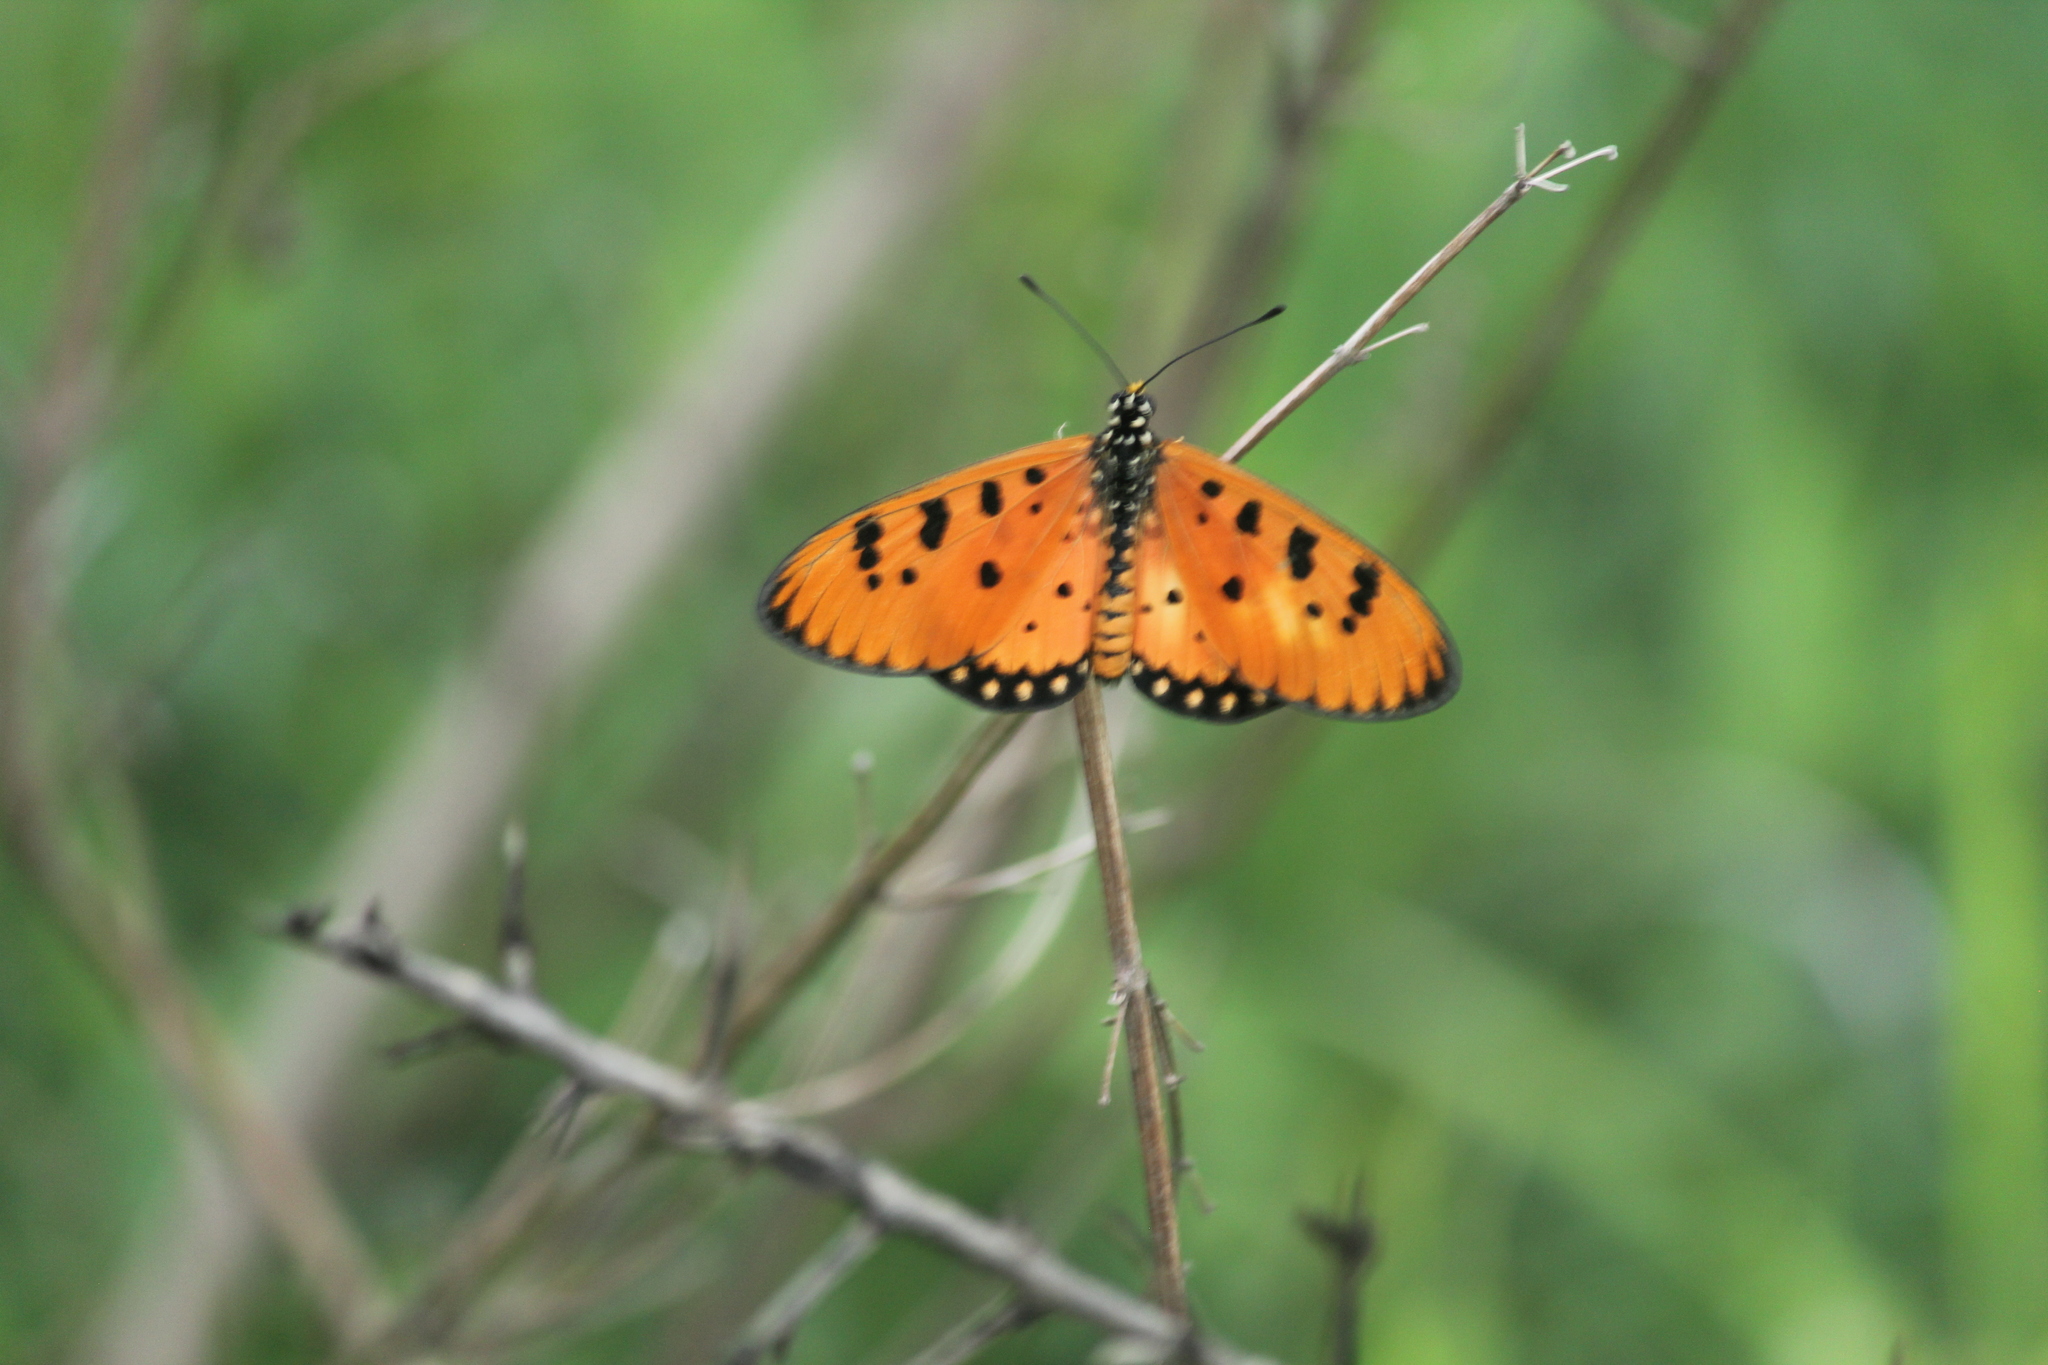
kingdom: Animalia
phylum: Arthropoda
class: Insecta
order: Lepidoptera
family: Nymphalidae
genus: Acraea
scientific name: Acraea terpsicore
